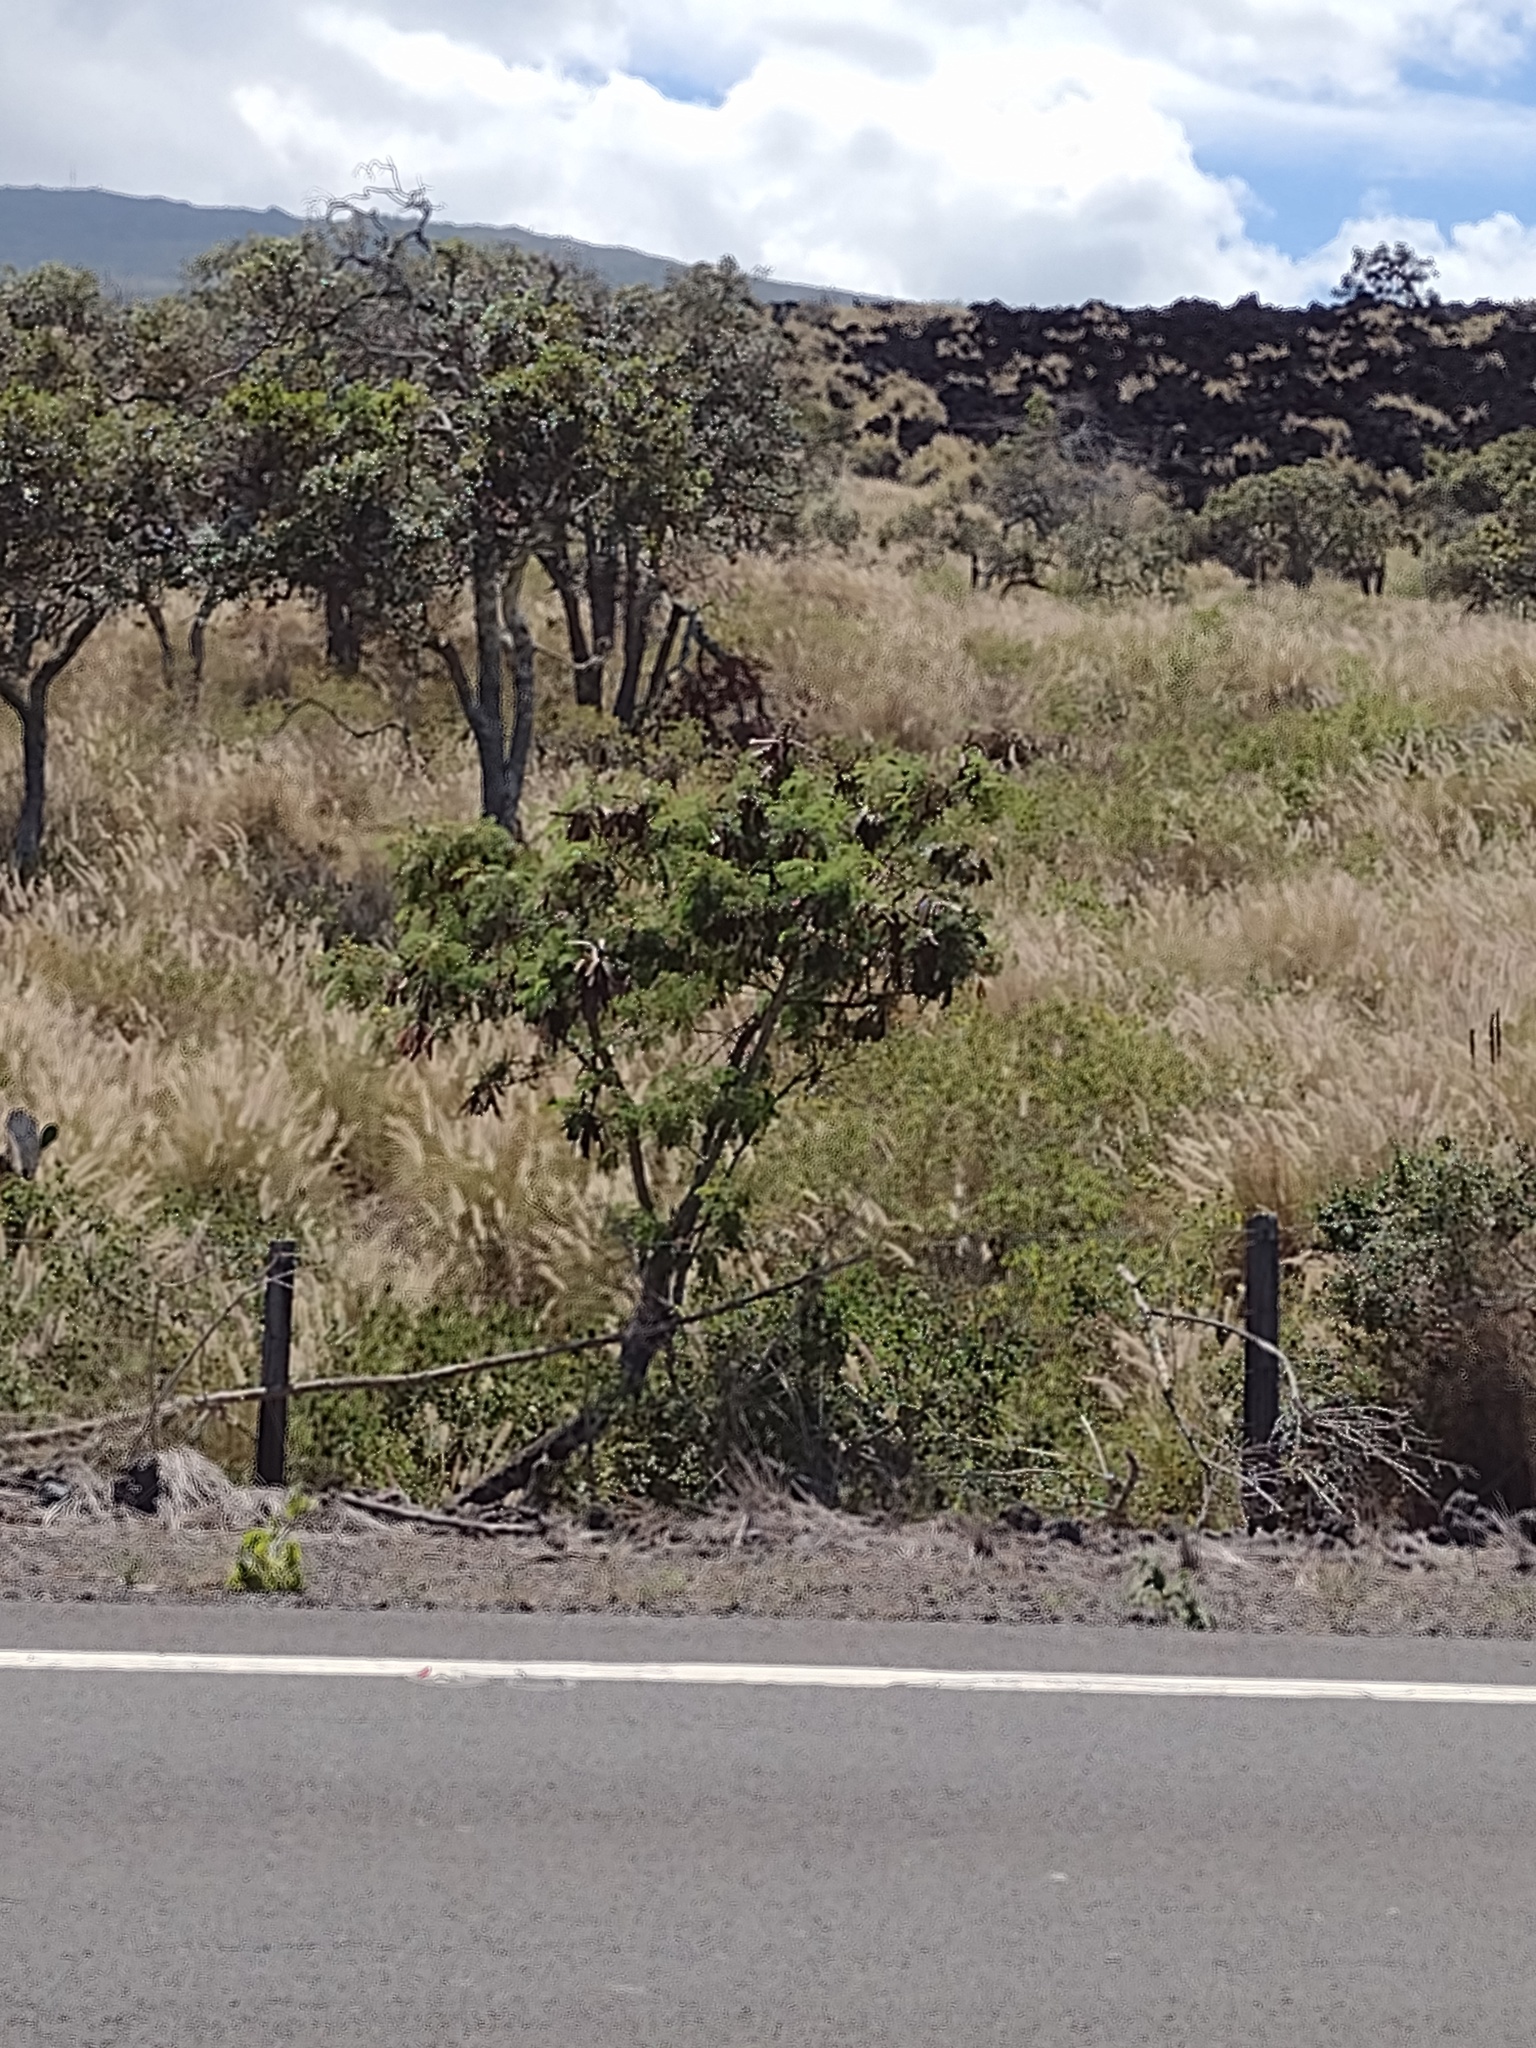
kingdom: Plantae
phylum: Tracheophyta
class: Magnoliopsida
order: Fabales
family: Fabaceae
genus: Leucaena
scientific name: Leucaena leucocephala
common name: White leadtree
